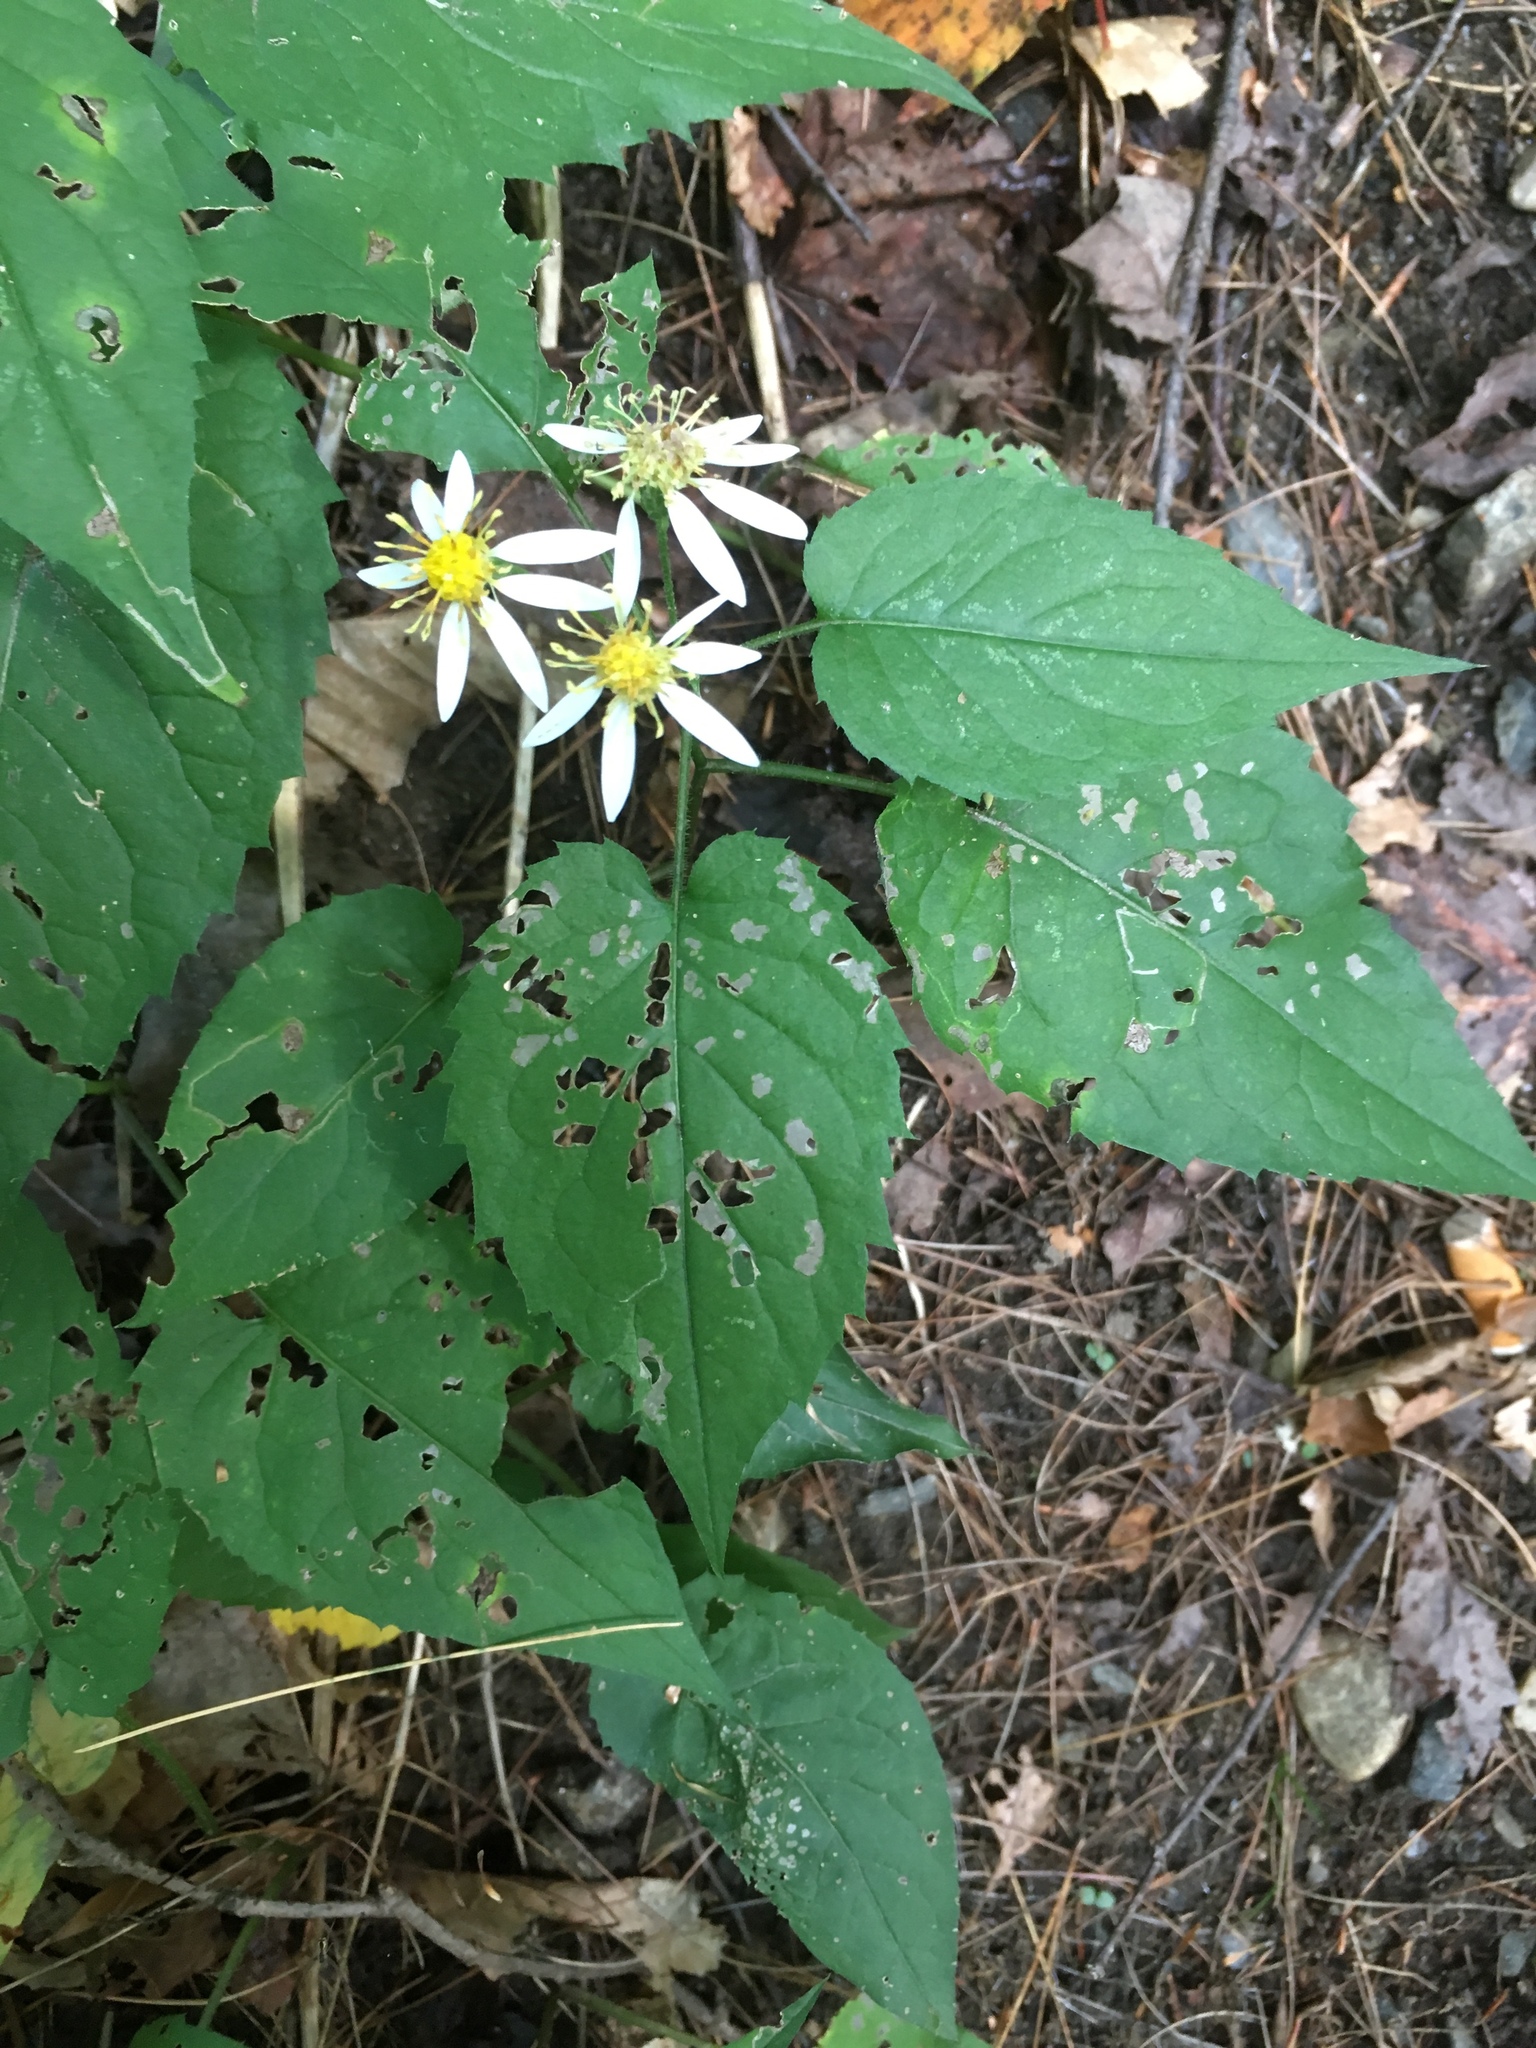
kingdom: Plantae
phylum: Tracheophyta
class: Magnoliopsida
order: Asterales
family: Asteraceae
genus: Eurybia
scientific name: Eurybia divaricata
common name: White wood aster
